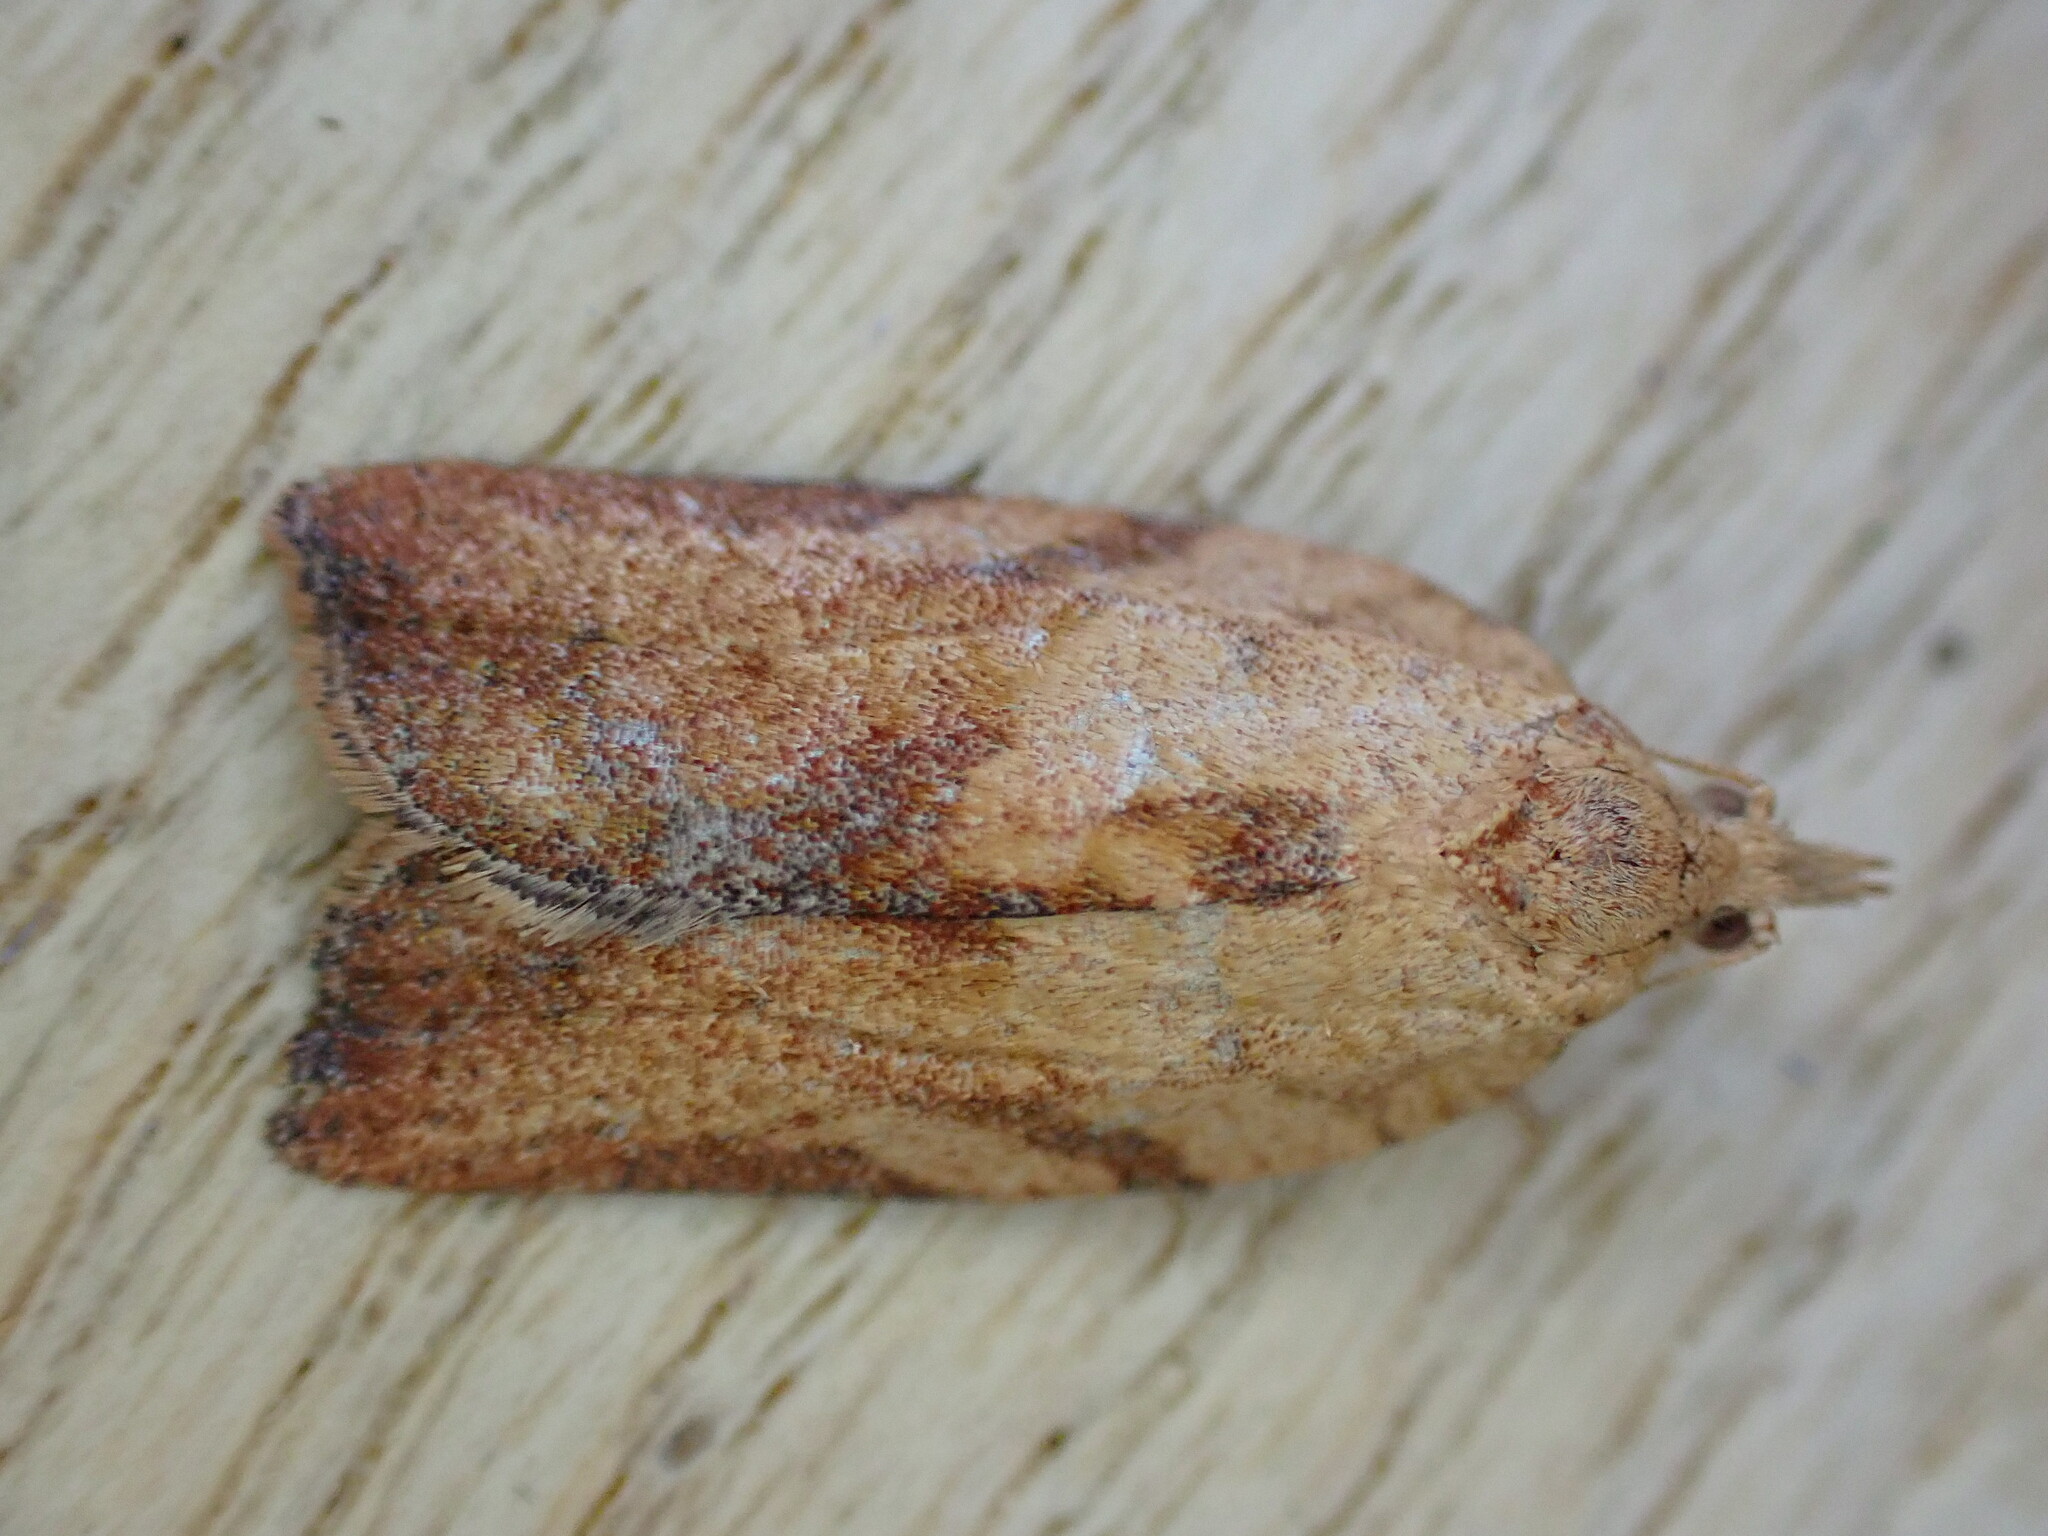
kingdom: Animalia
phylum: Arthropoda
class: Insecta
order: Lepidoptera
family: Tortricidae
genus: Epiphyas
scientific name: Epiphyas postvittana
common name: Light brown apple moth
